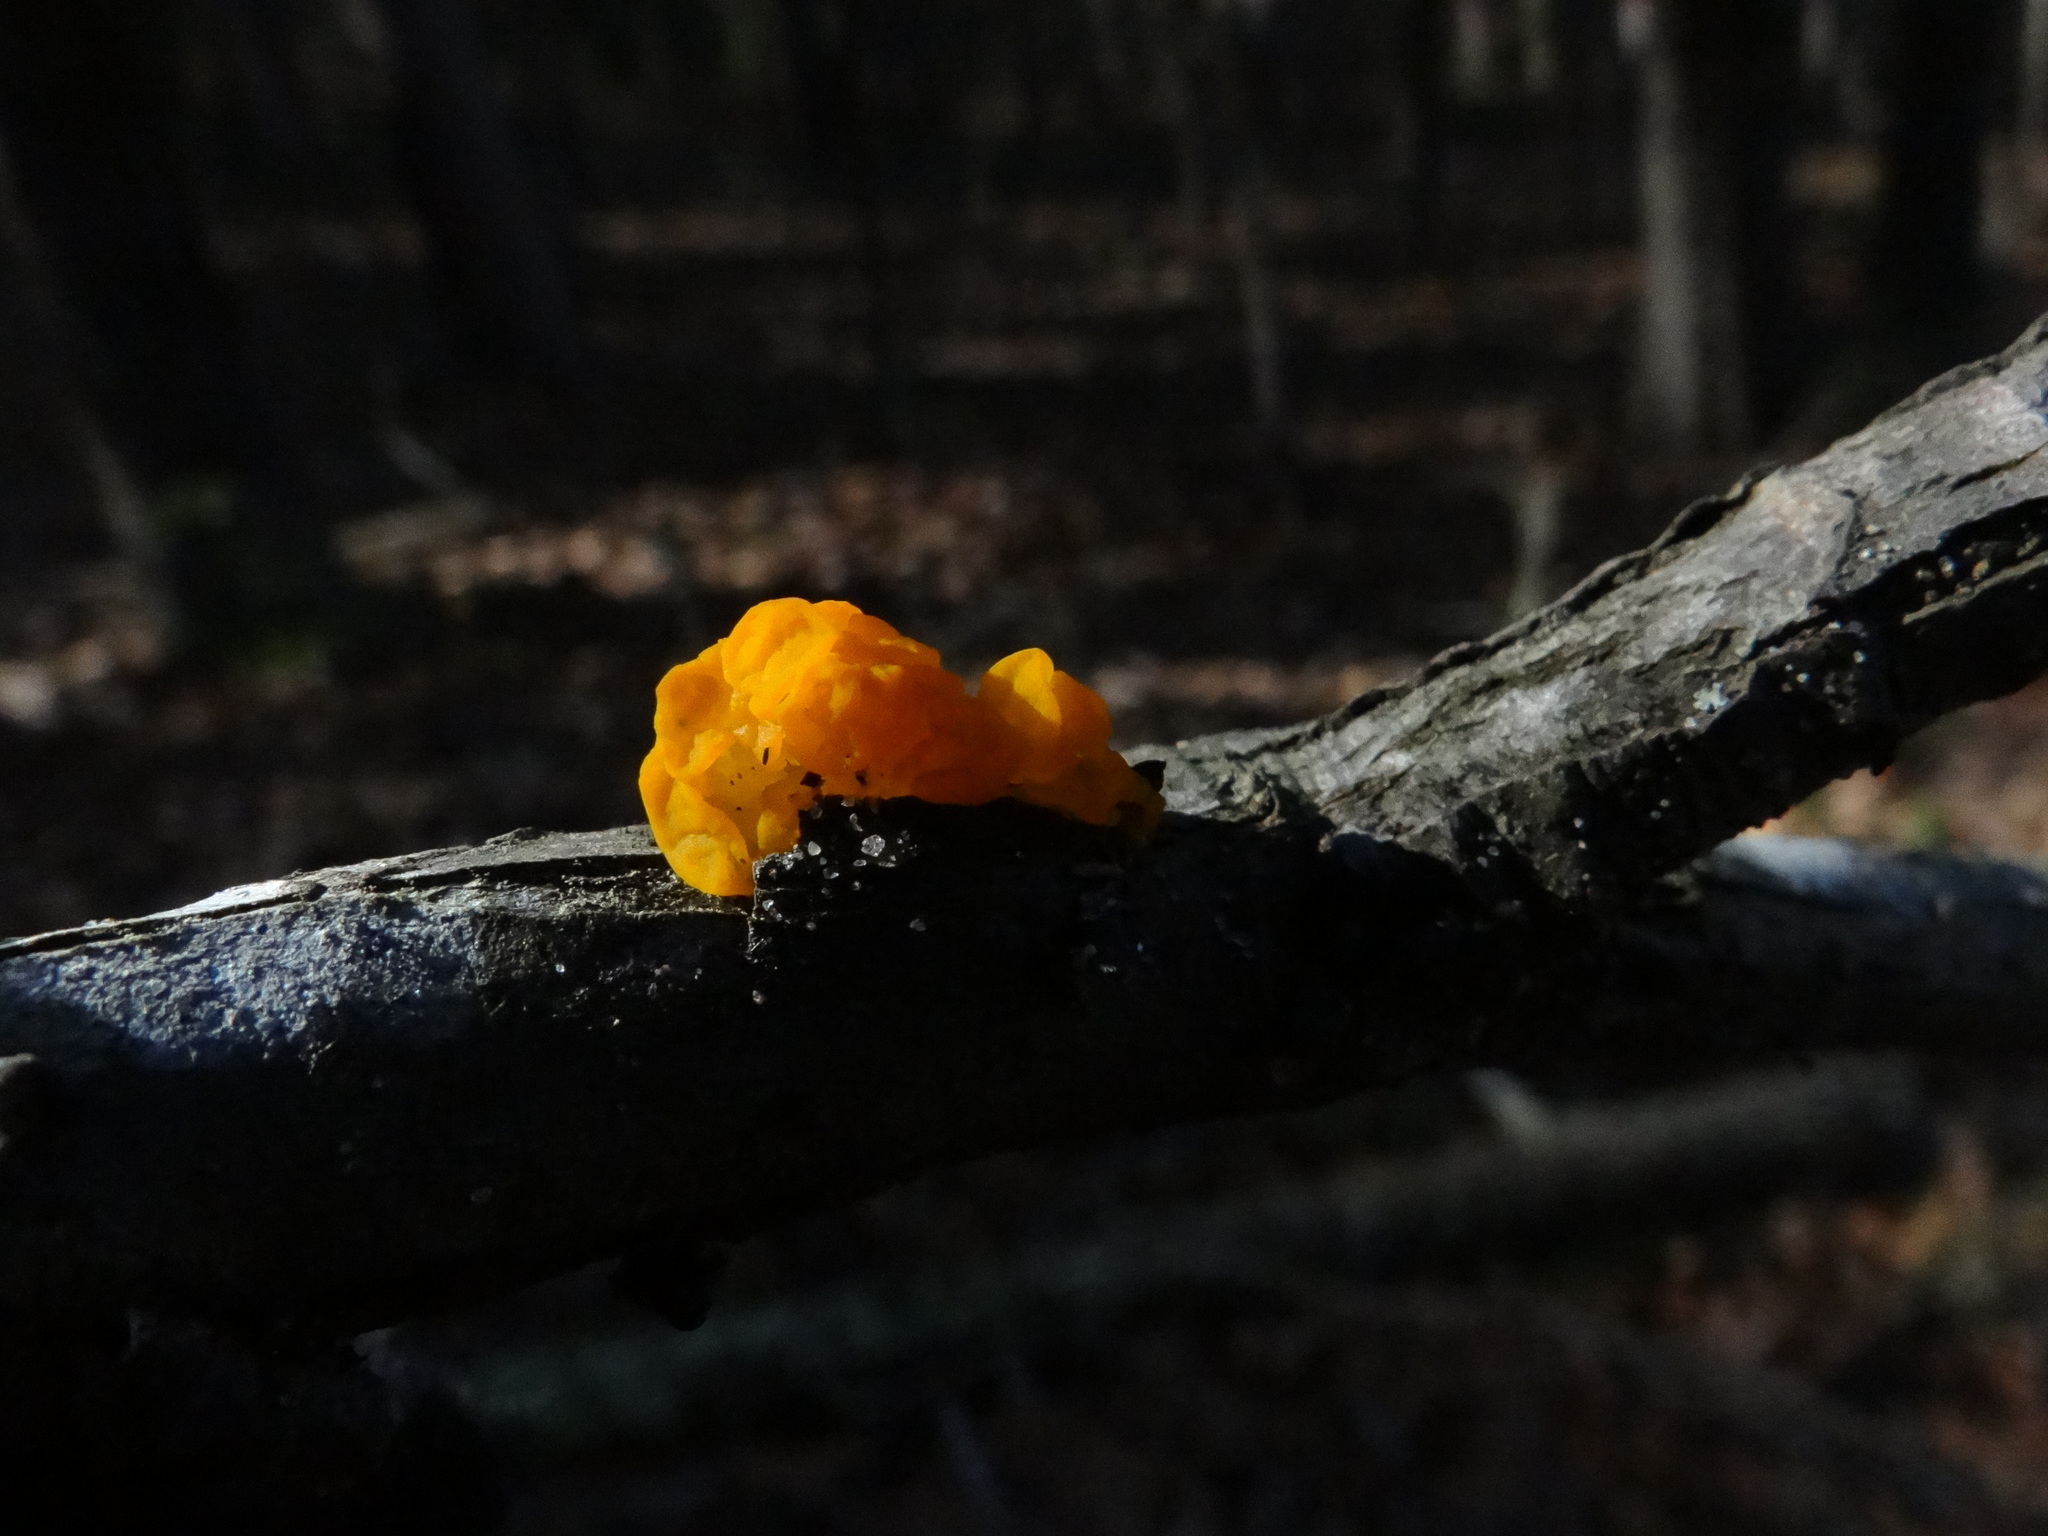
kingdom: Fungi
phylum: Basidiomycota
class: Dacrymycetes
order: Dacrymycetales
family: Dacrymycetaceae
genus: Dacrymyces
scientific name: Dacrymyces chrysospermus
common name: Orange jelly spot
